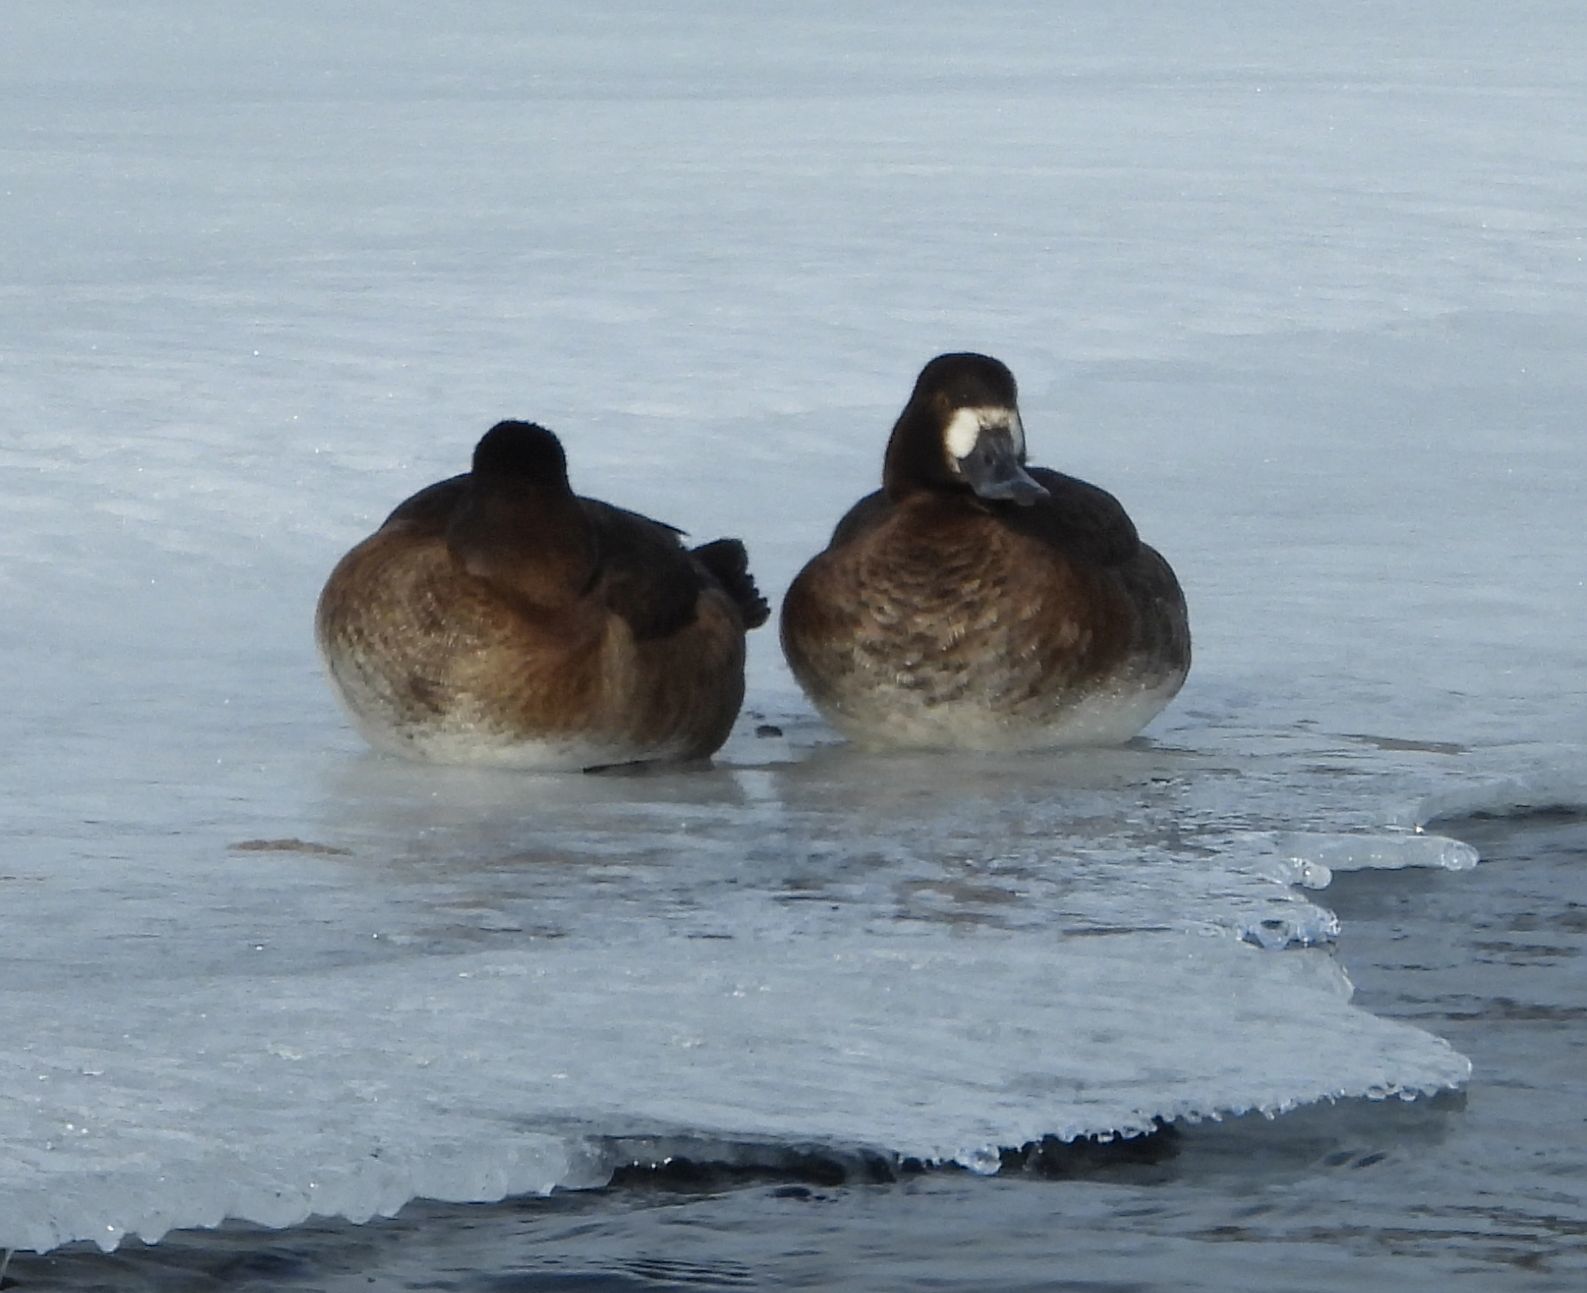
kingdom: Animalia
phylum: Chordata
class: Aves
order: Anseriformes
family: Anatidae
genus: Aythya
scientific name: Aythya marila
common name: Greater scaup
